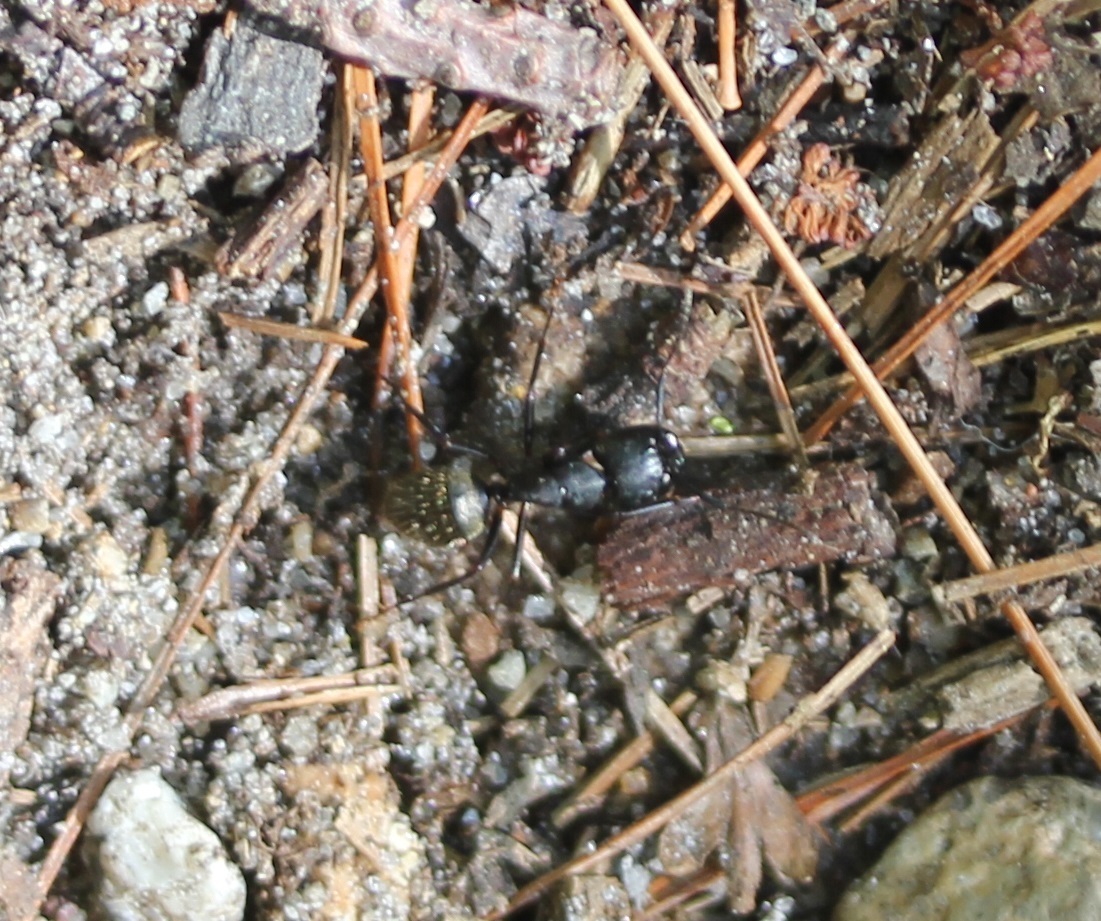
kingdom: Animalia
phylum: Arthropoda
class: Insecta
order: Hymenoptera
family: Formicidae
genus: Camponotus
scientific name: Camponotus pennsylvanicus
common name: Black carpenter ant
